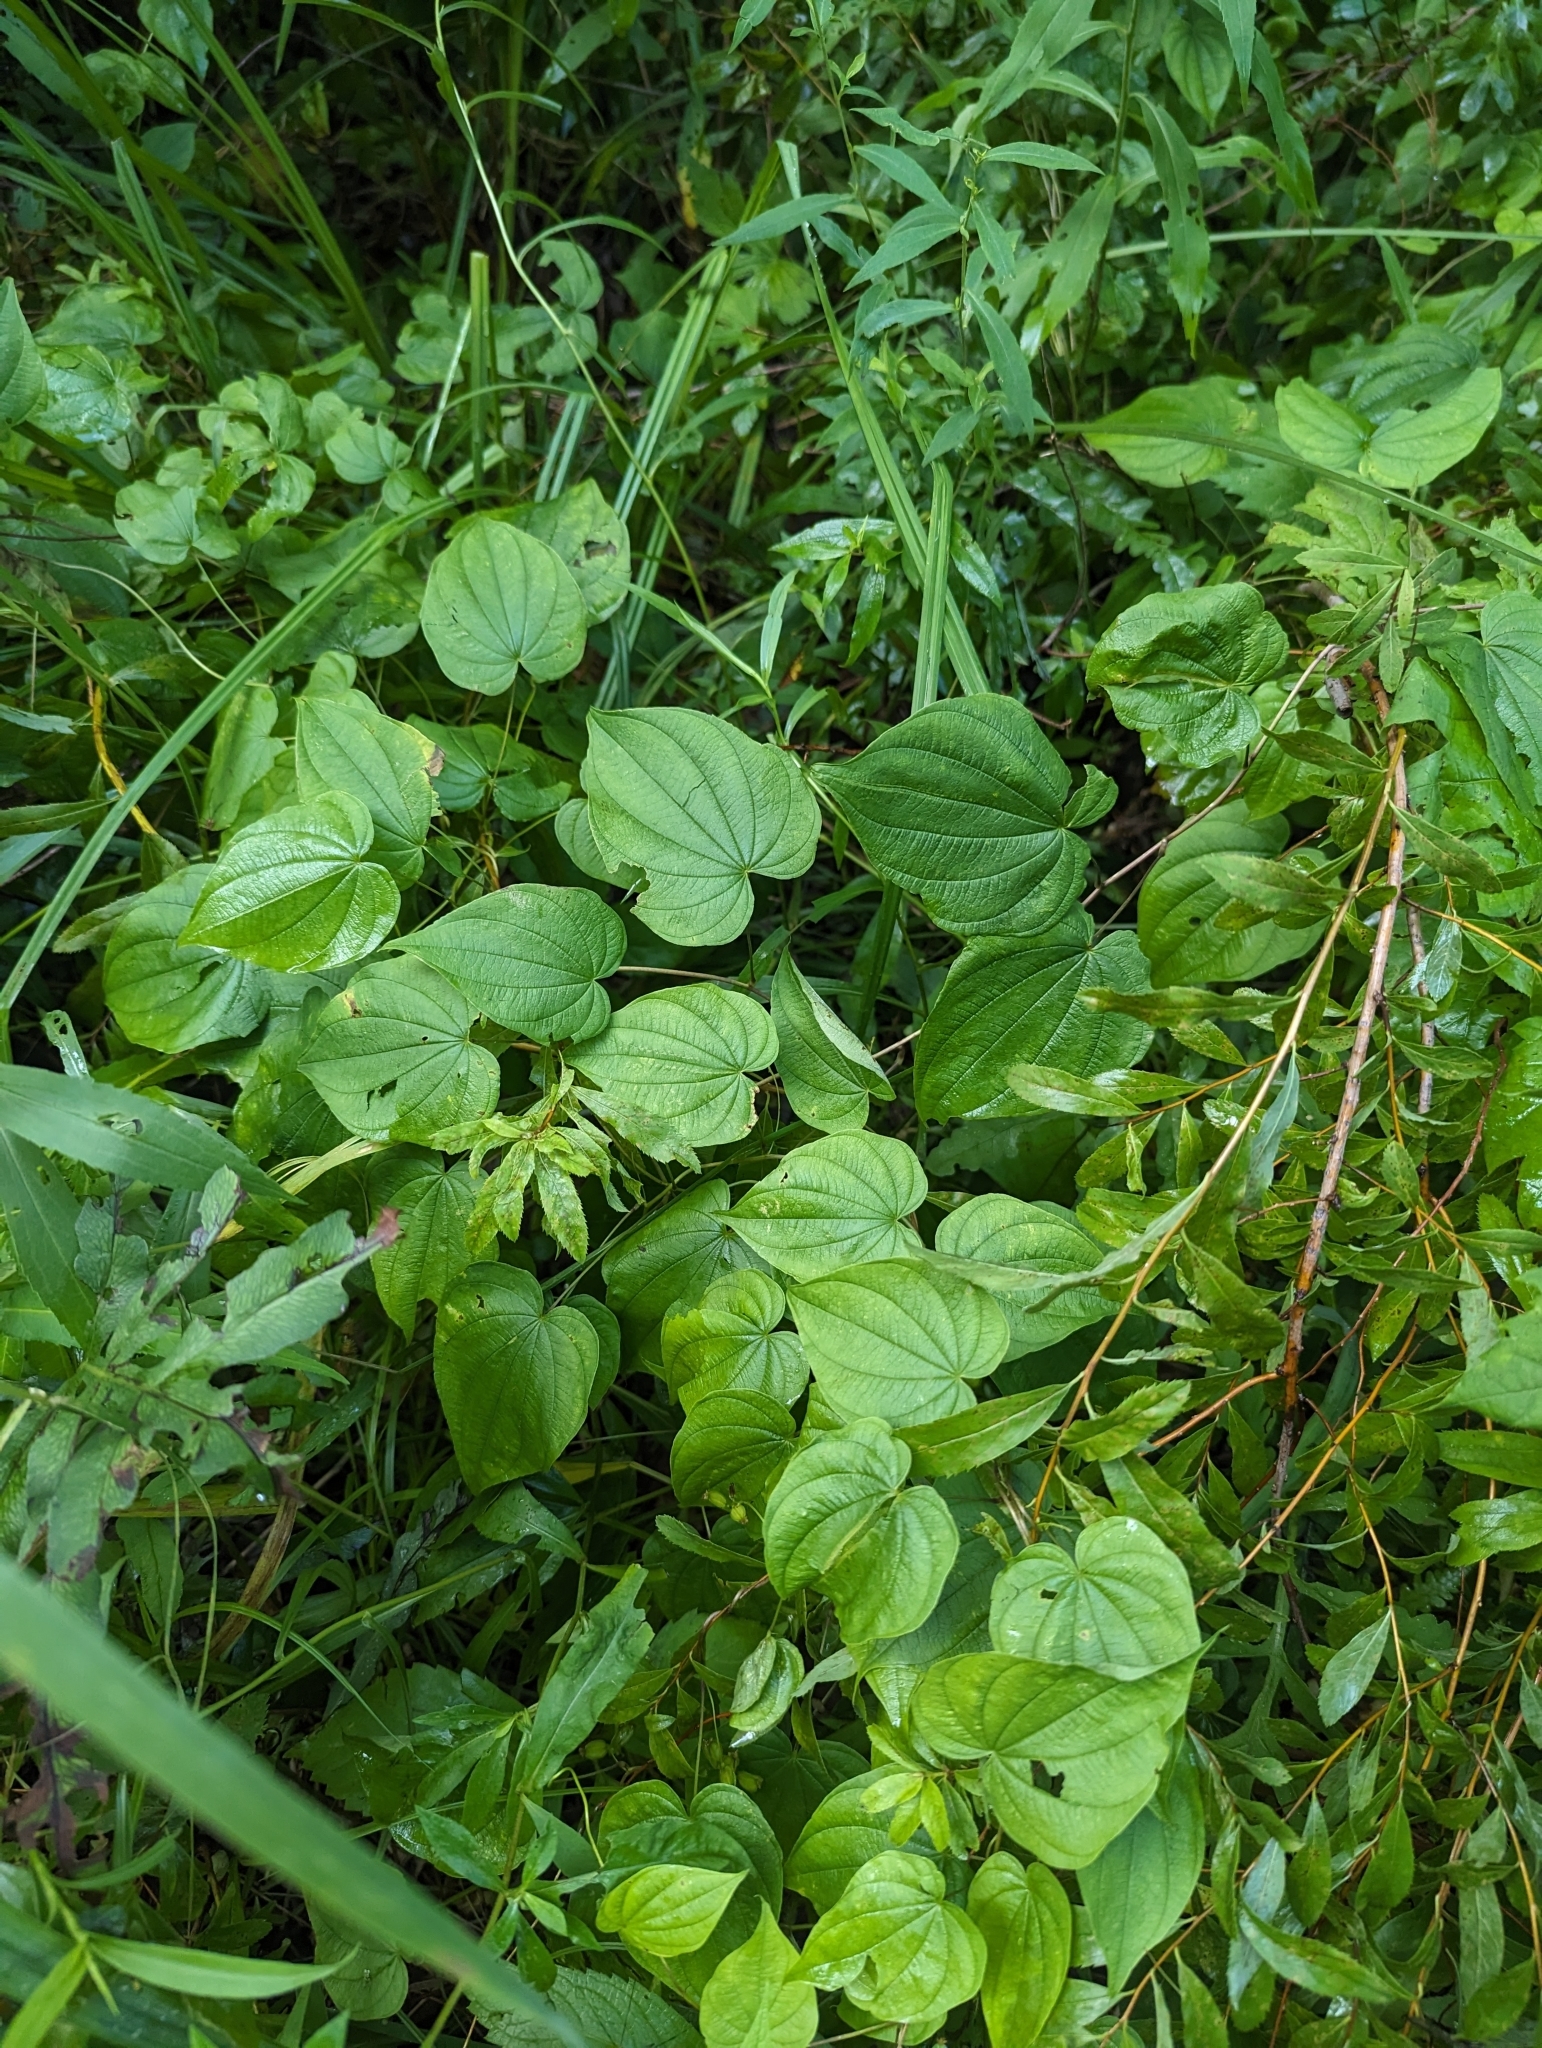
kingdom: Plantae
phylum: Tracheophyta
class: Liliopsida
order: Dioscoreales
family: Dioscoreaceae
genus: Dioscorea
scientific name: Dioscorea villosa
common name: Wild yam
